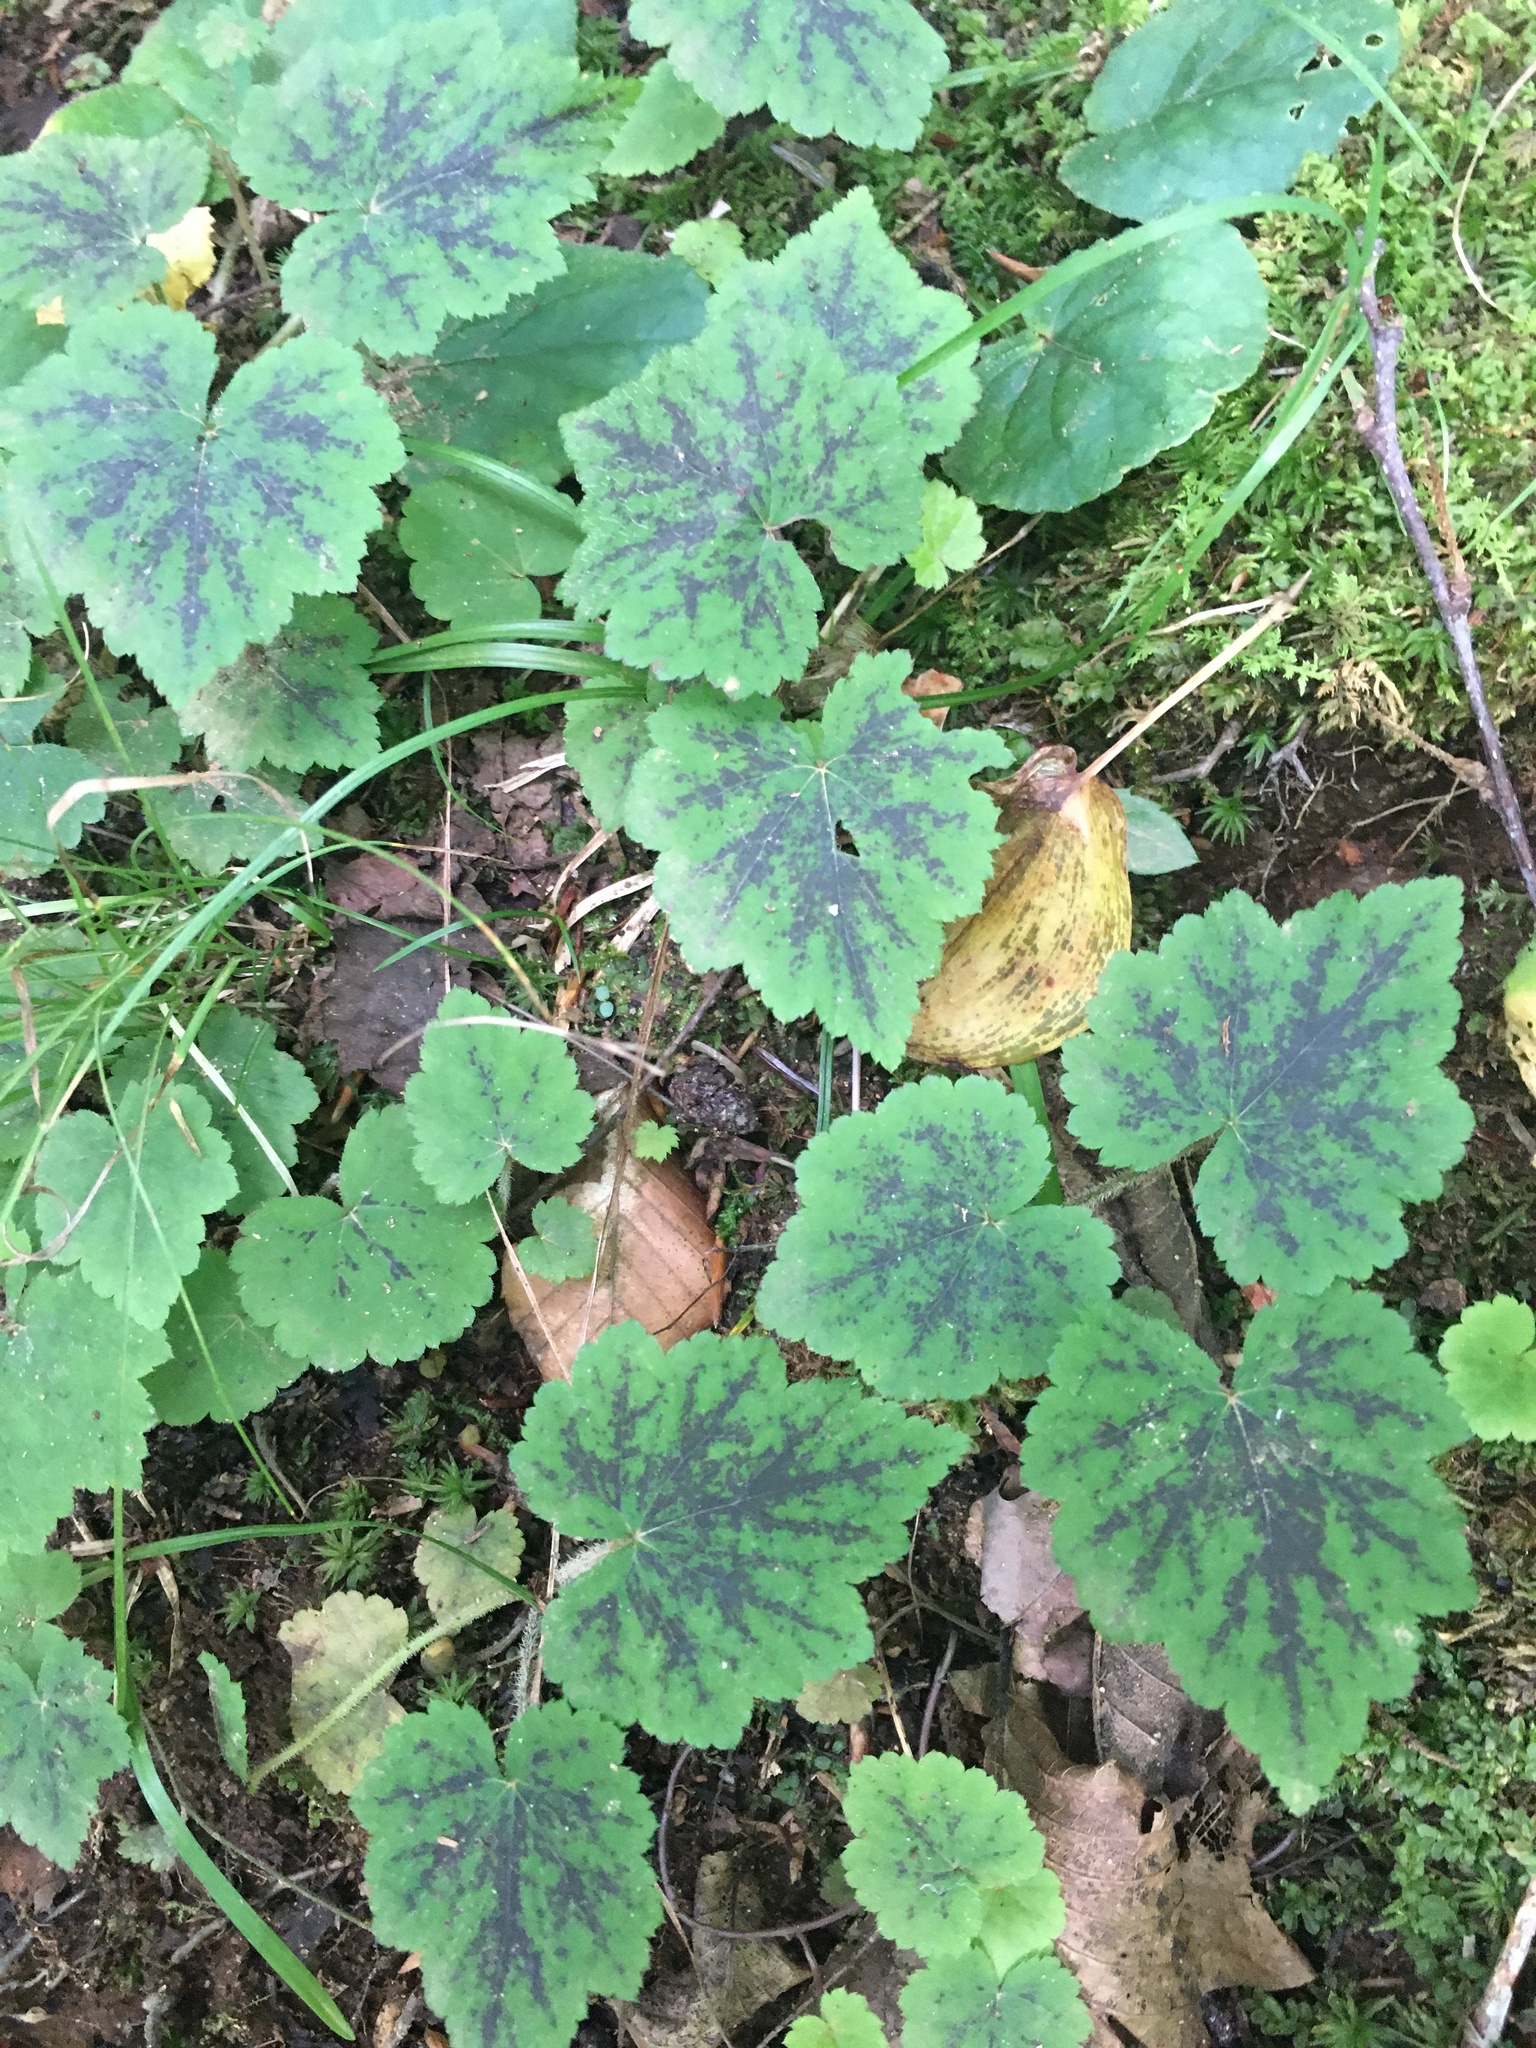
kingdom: Plantae
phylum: Tracheophyta
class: Magnoliopsida
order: Saxifragales
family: Saxifragaceae
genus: Tiarella
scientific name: Tiarella stolonifera
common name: Stoloniferous foamflower
